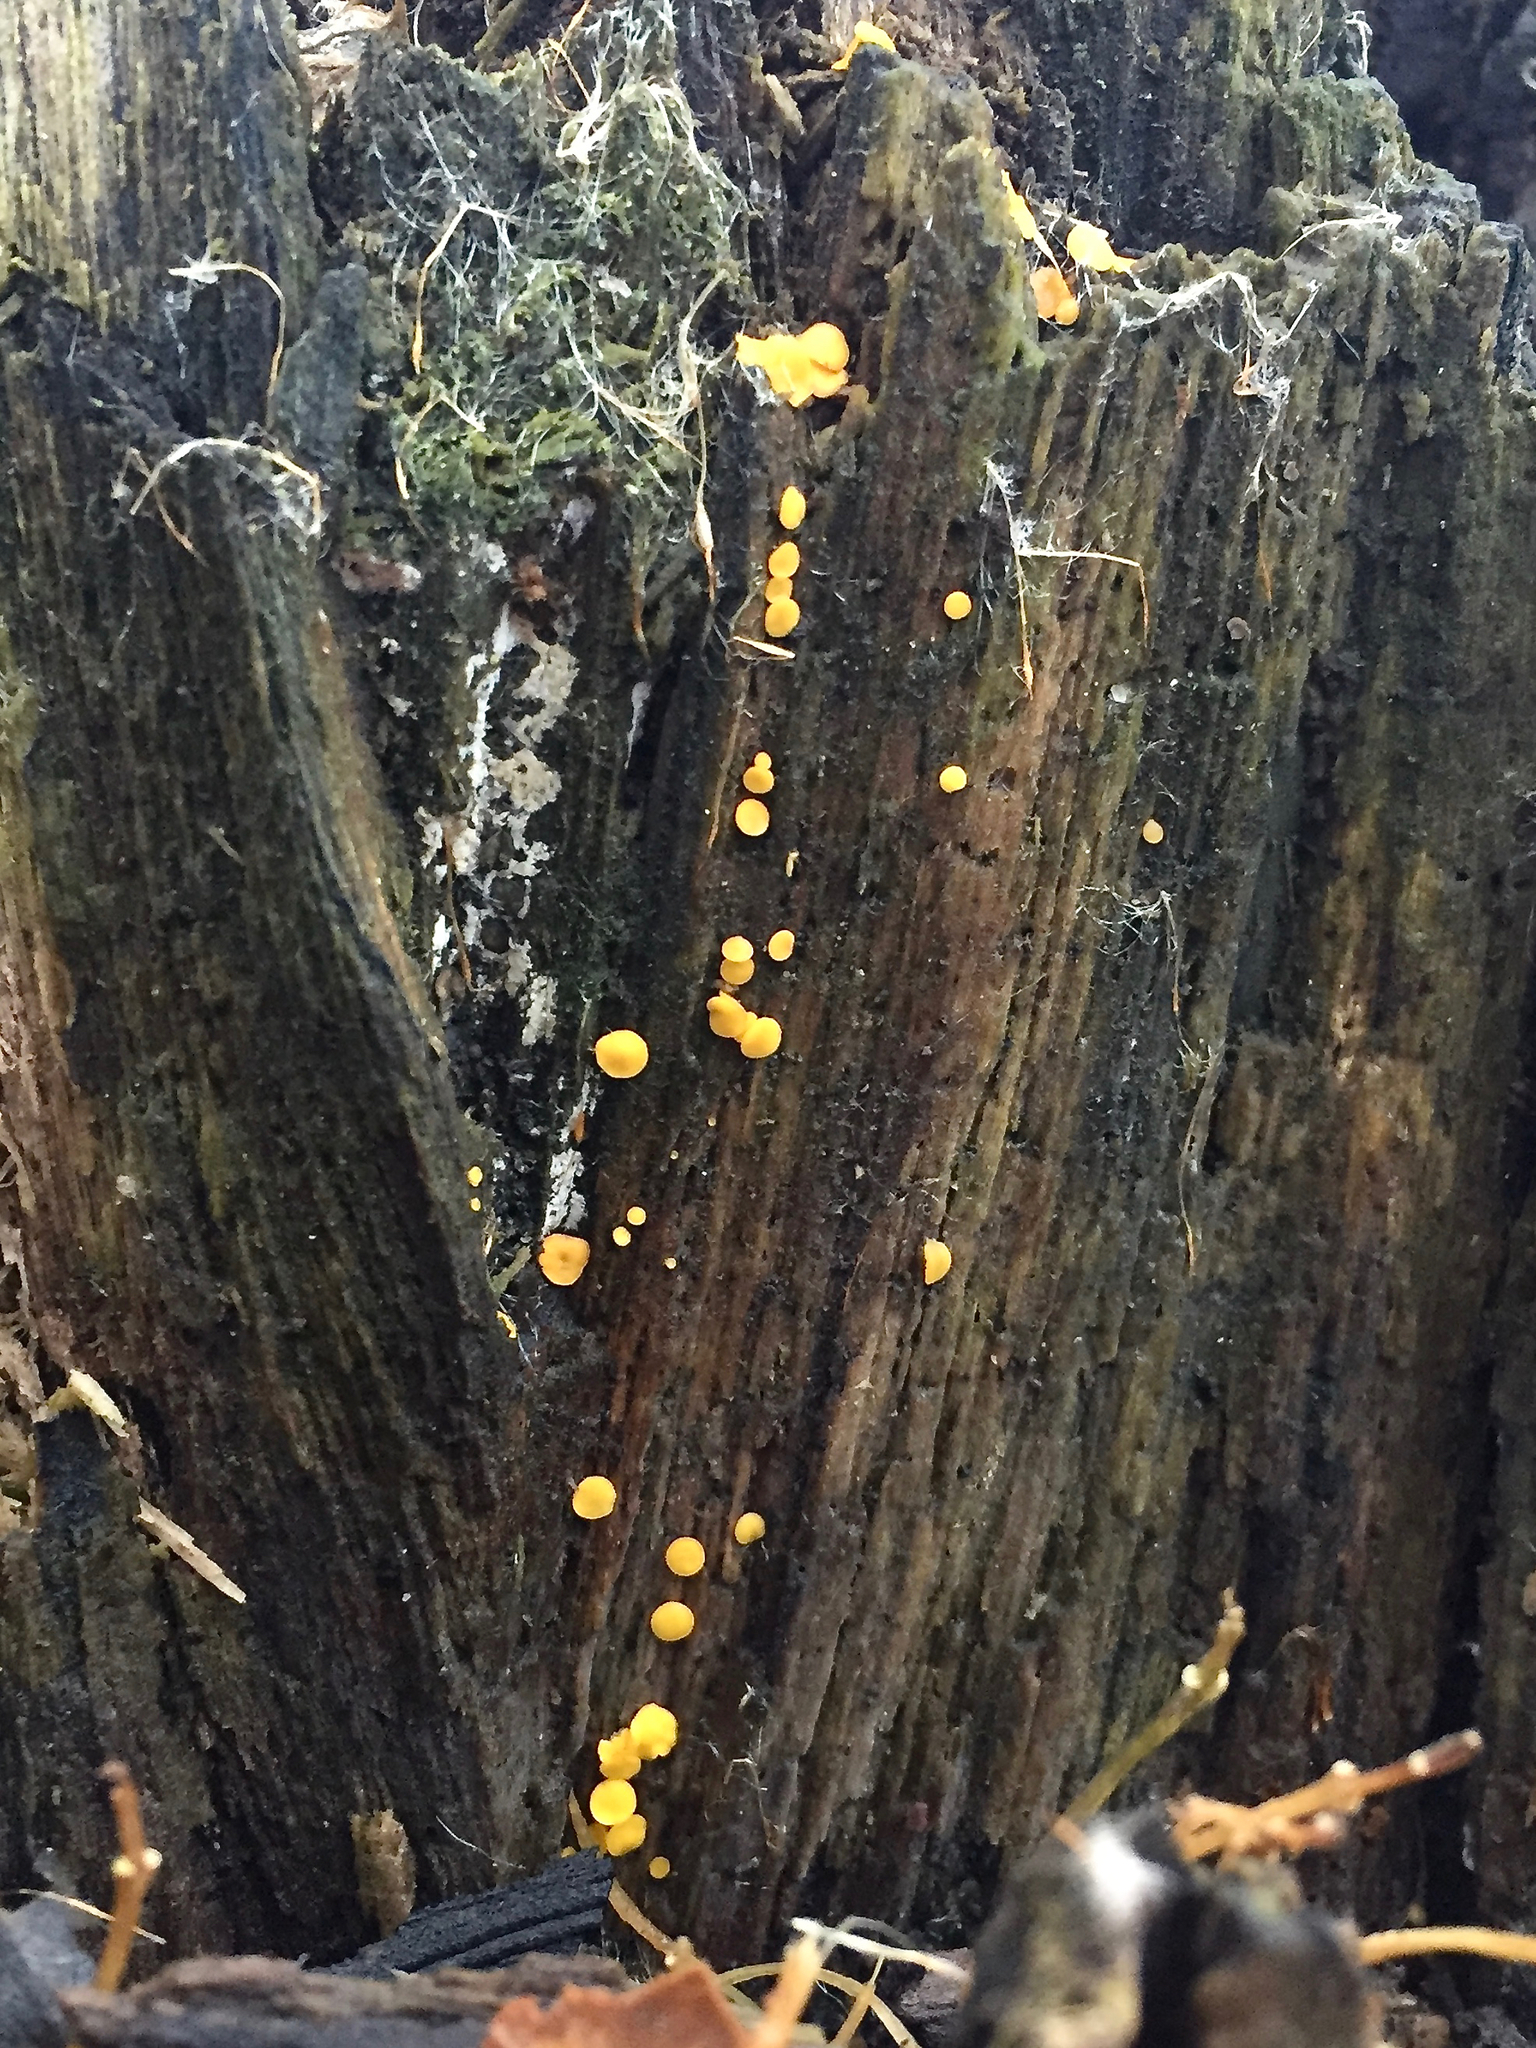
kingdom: Fungi
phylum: Ascomycota
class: Leotiomycetes
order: Helotiales
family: Pezizellaceae
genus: Calycina
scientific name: Calycina citrina
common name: Yellow fairy cups
